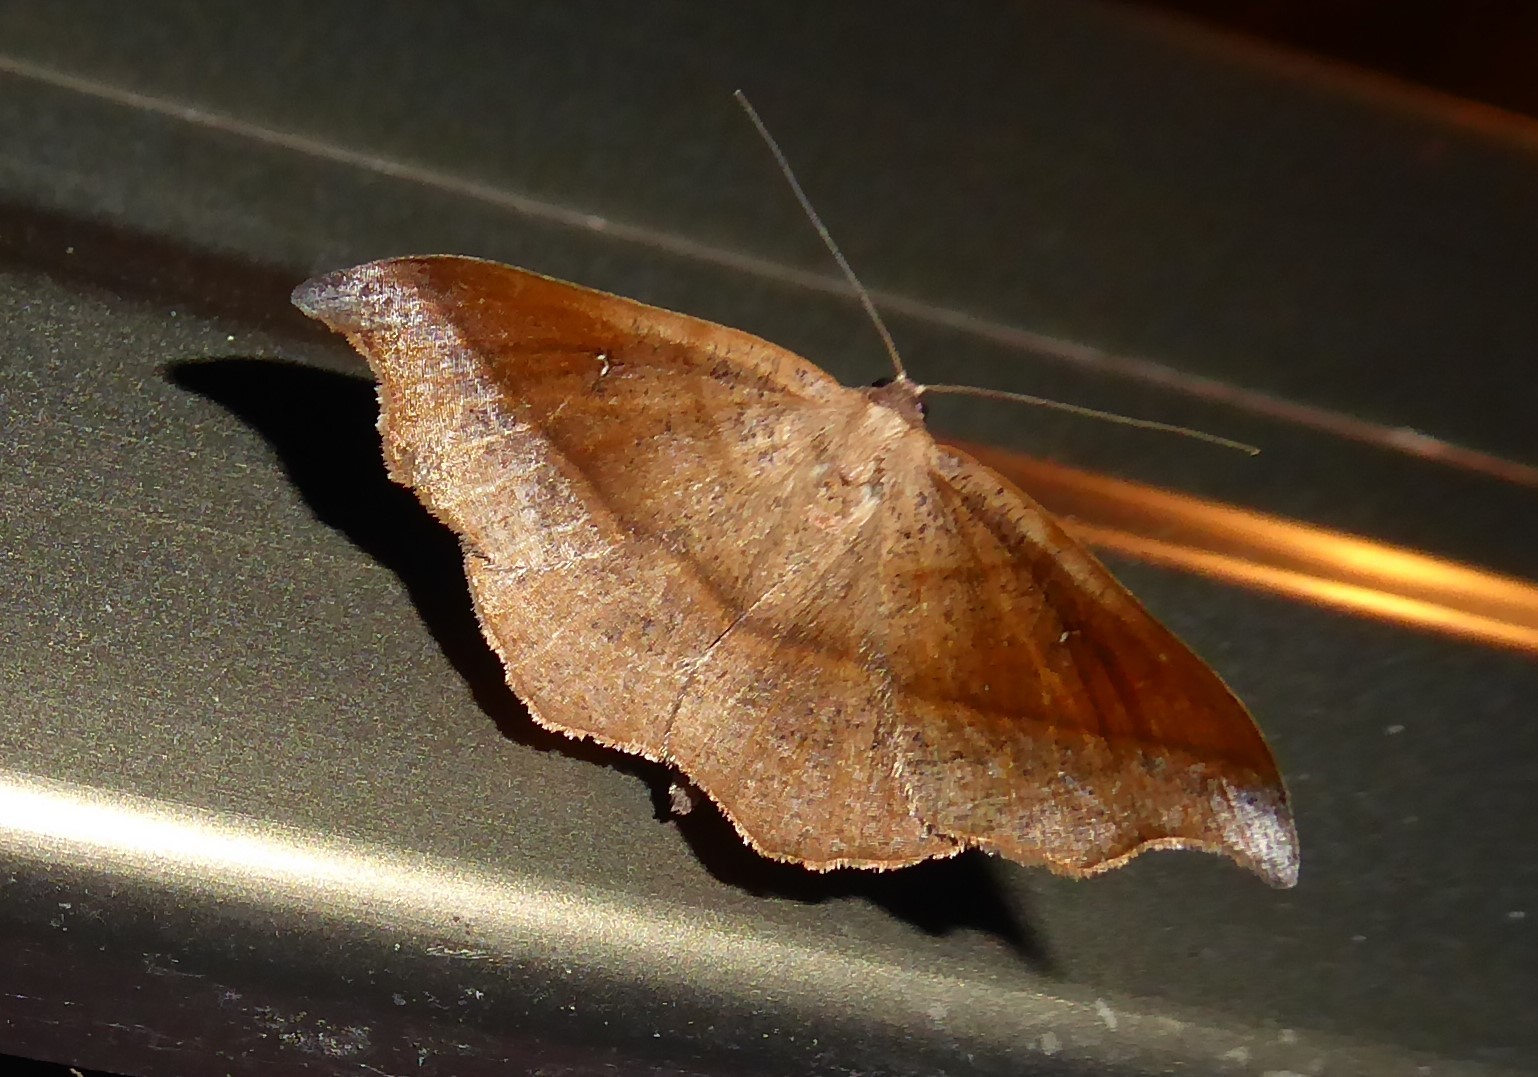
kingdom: Animalia
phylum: Arthropoda
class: Insecta
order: Lepidoptera
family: Geometridae
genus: Sarisa
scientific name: Sarisa muriferata
